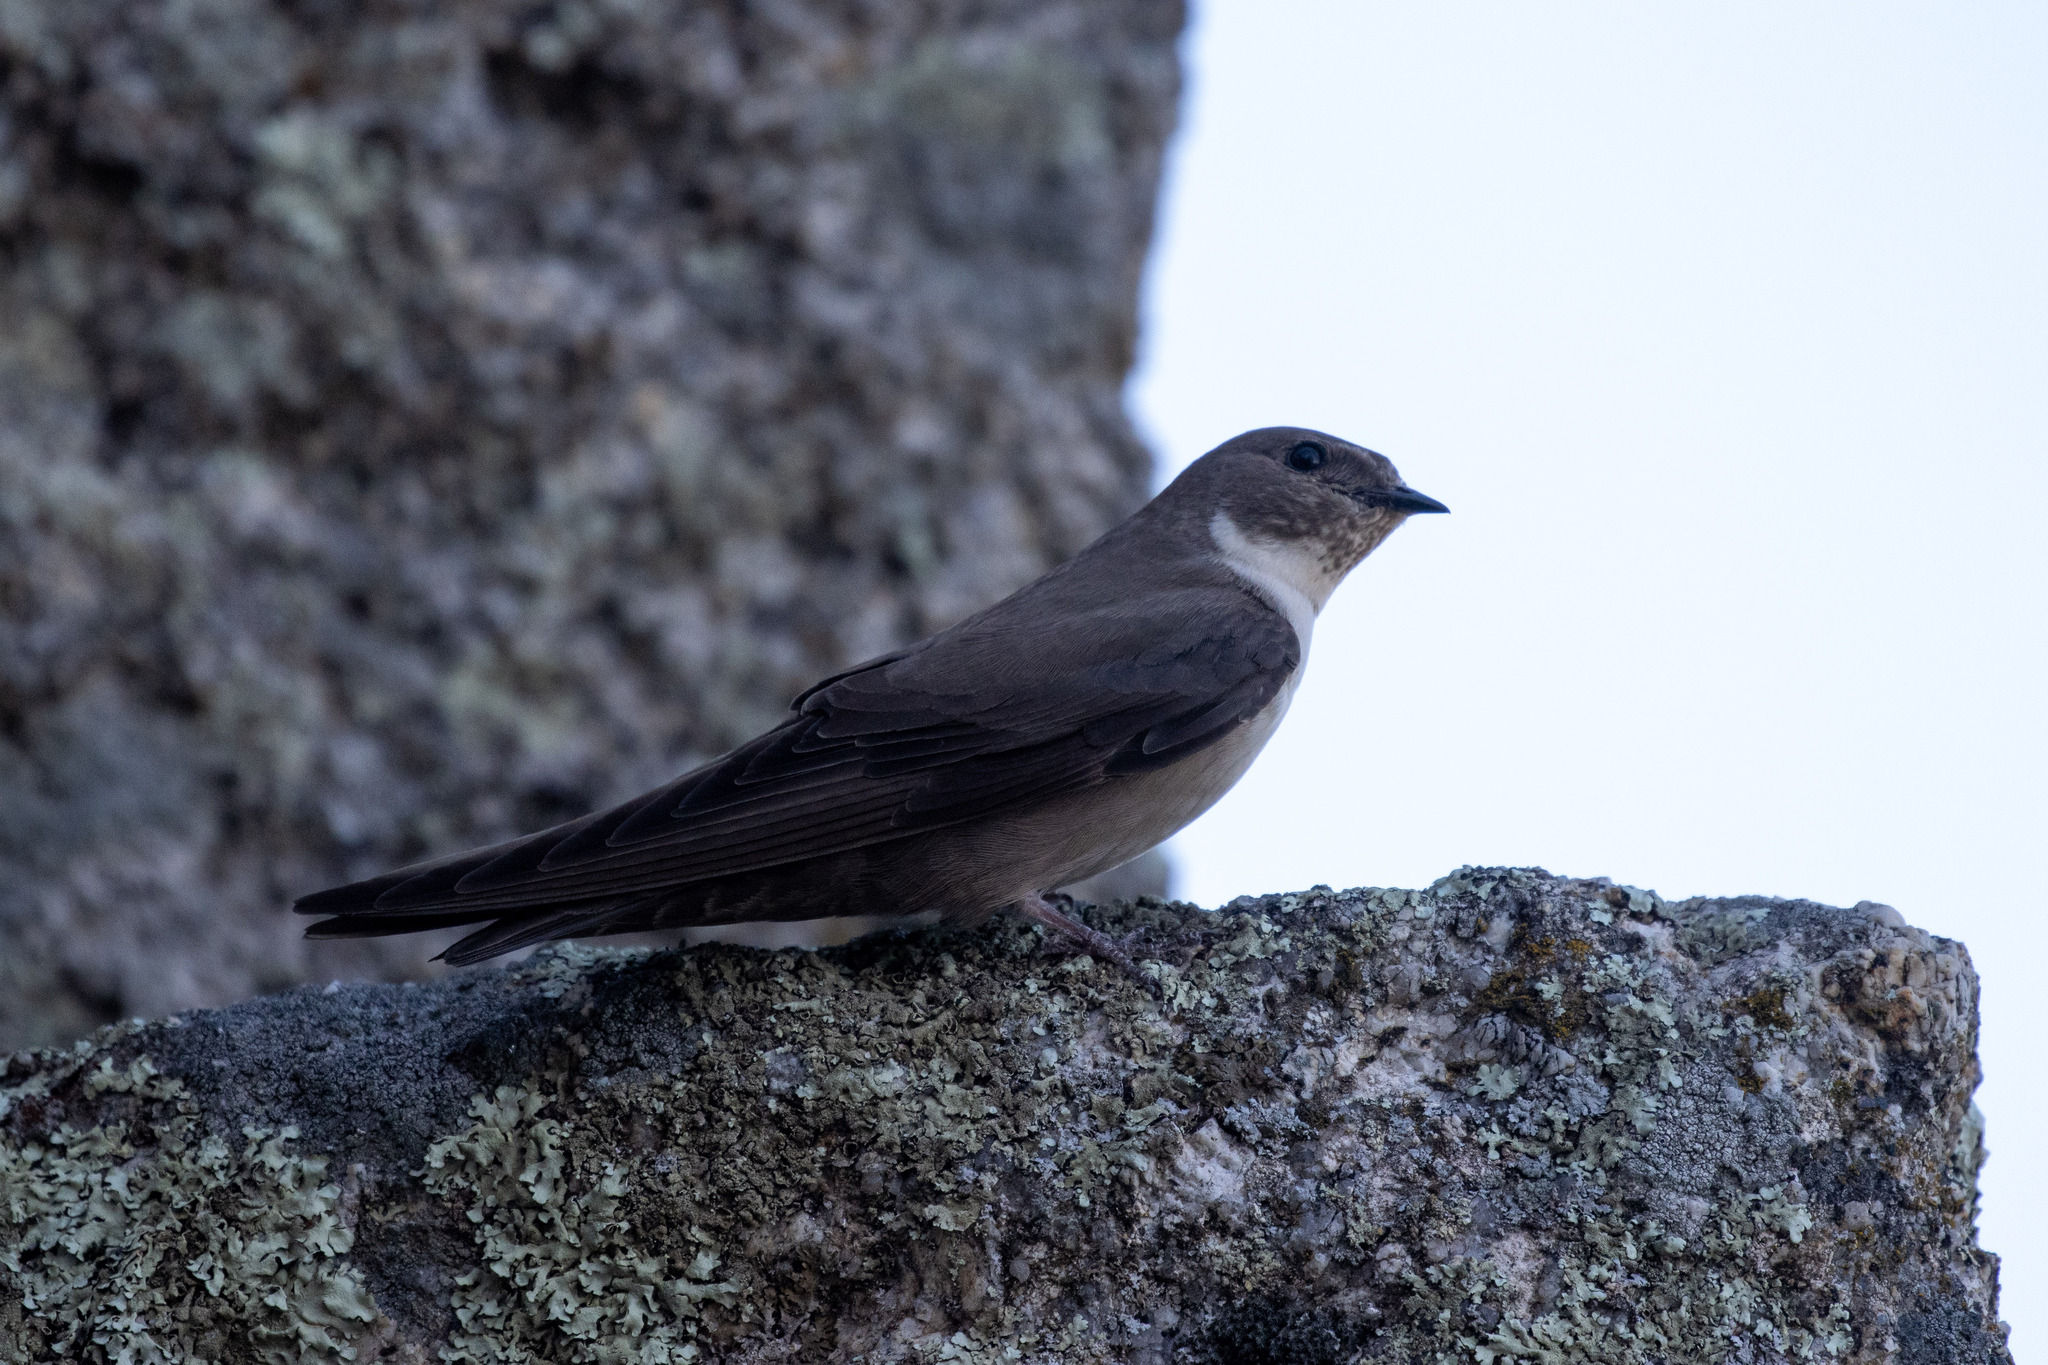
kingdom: Animalia
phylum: Chordata
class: Aves
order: Passeriformes
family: Hirundinidae
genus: Ptyonoprogne
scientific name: Ptyonoprogne rupestris
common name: Eurasian crag martin
